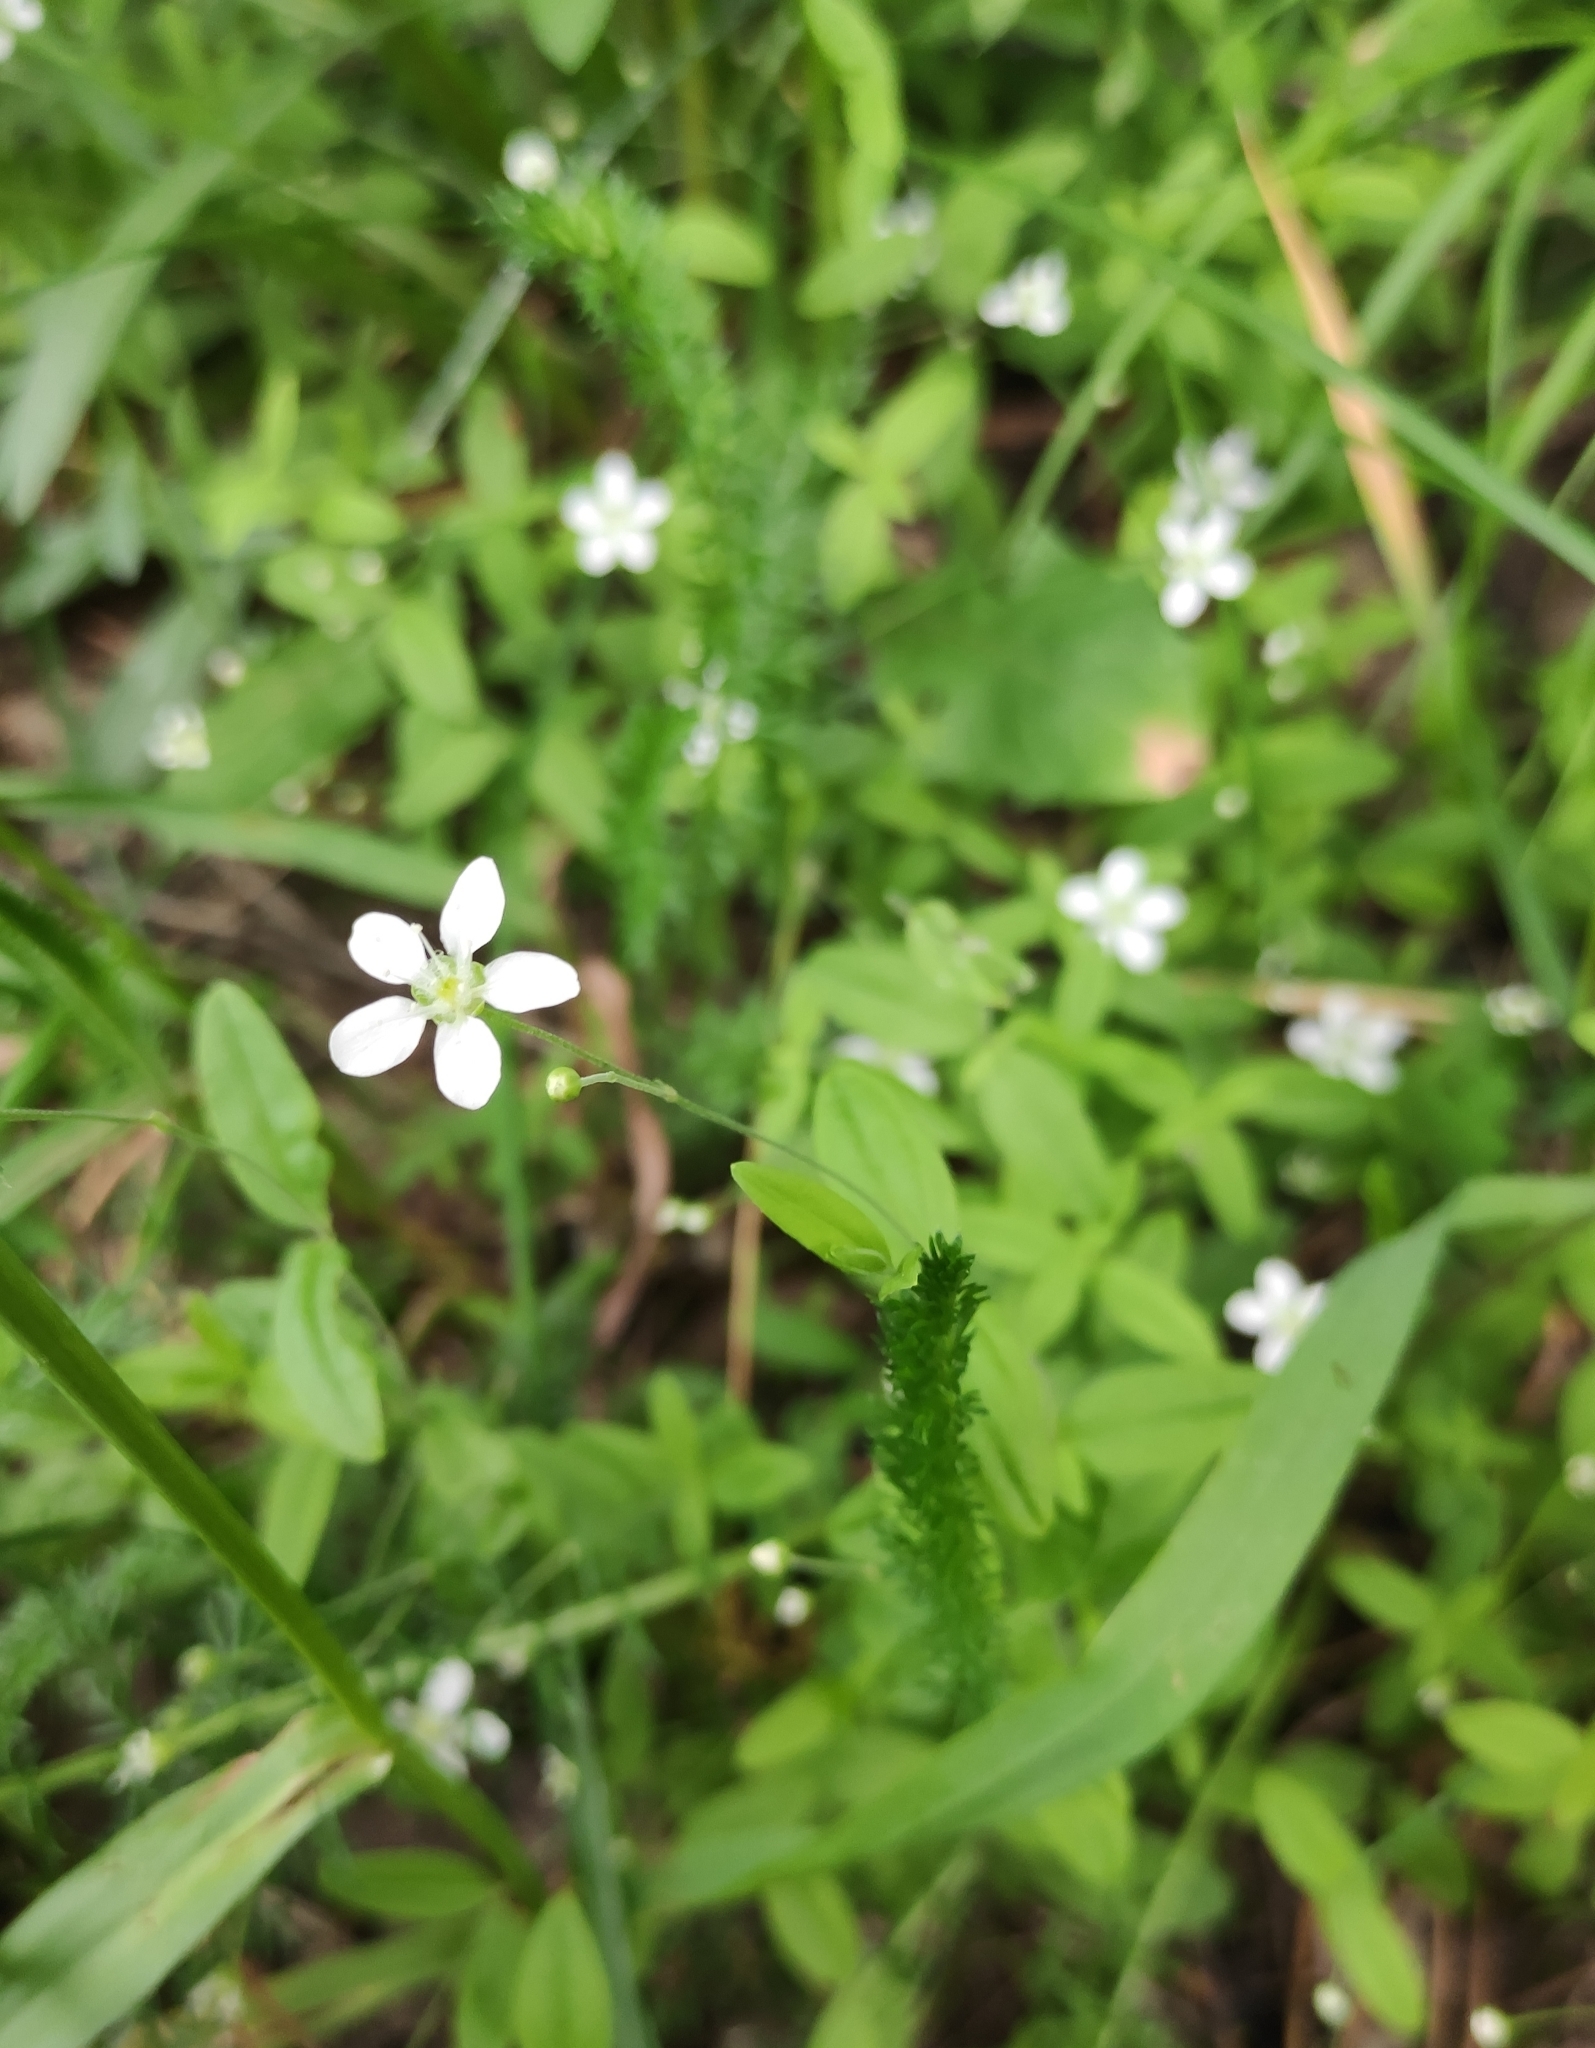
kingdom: Plantae
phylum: Tracheophyta
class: Magnoliopsida
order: Caryophyllales
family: Caryophyllaceae
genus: Moehringia
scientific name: Moehringia lateriflora
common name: Blunt-leaved sandwort
